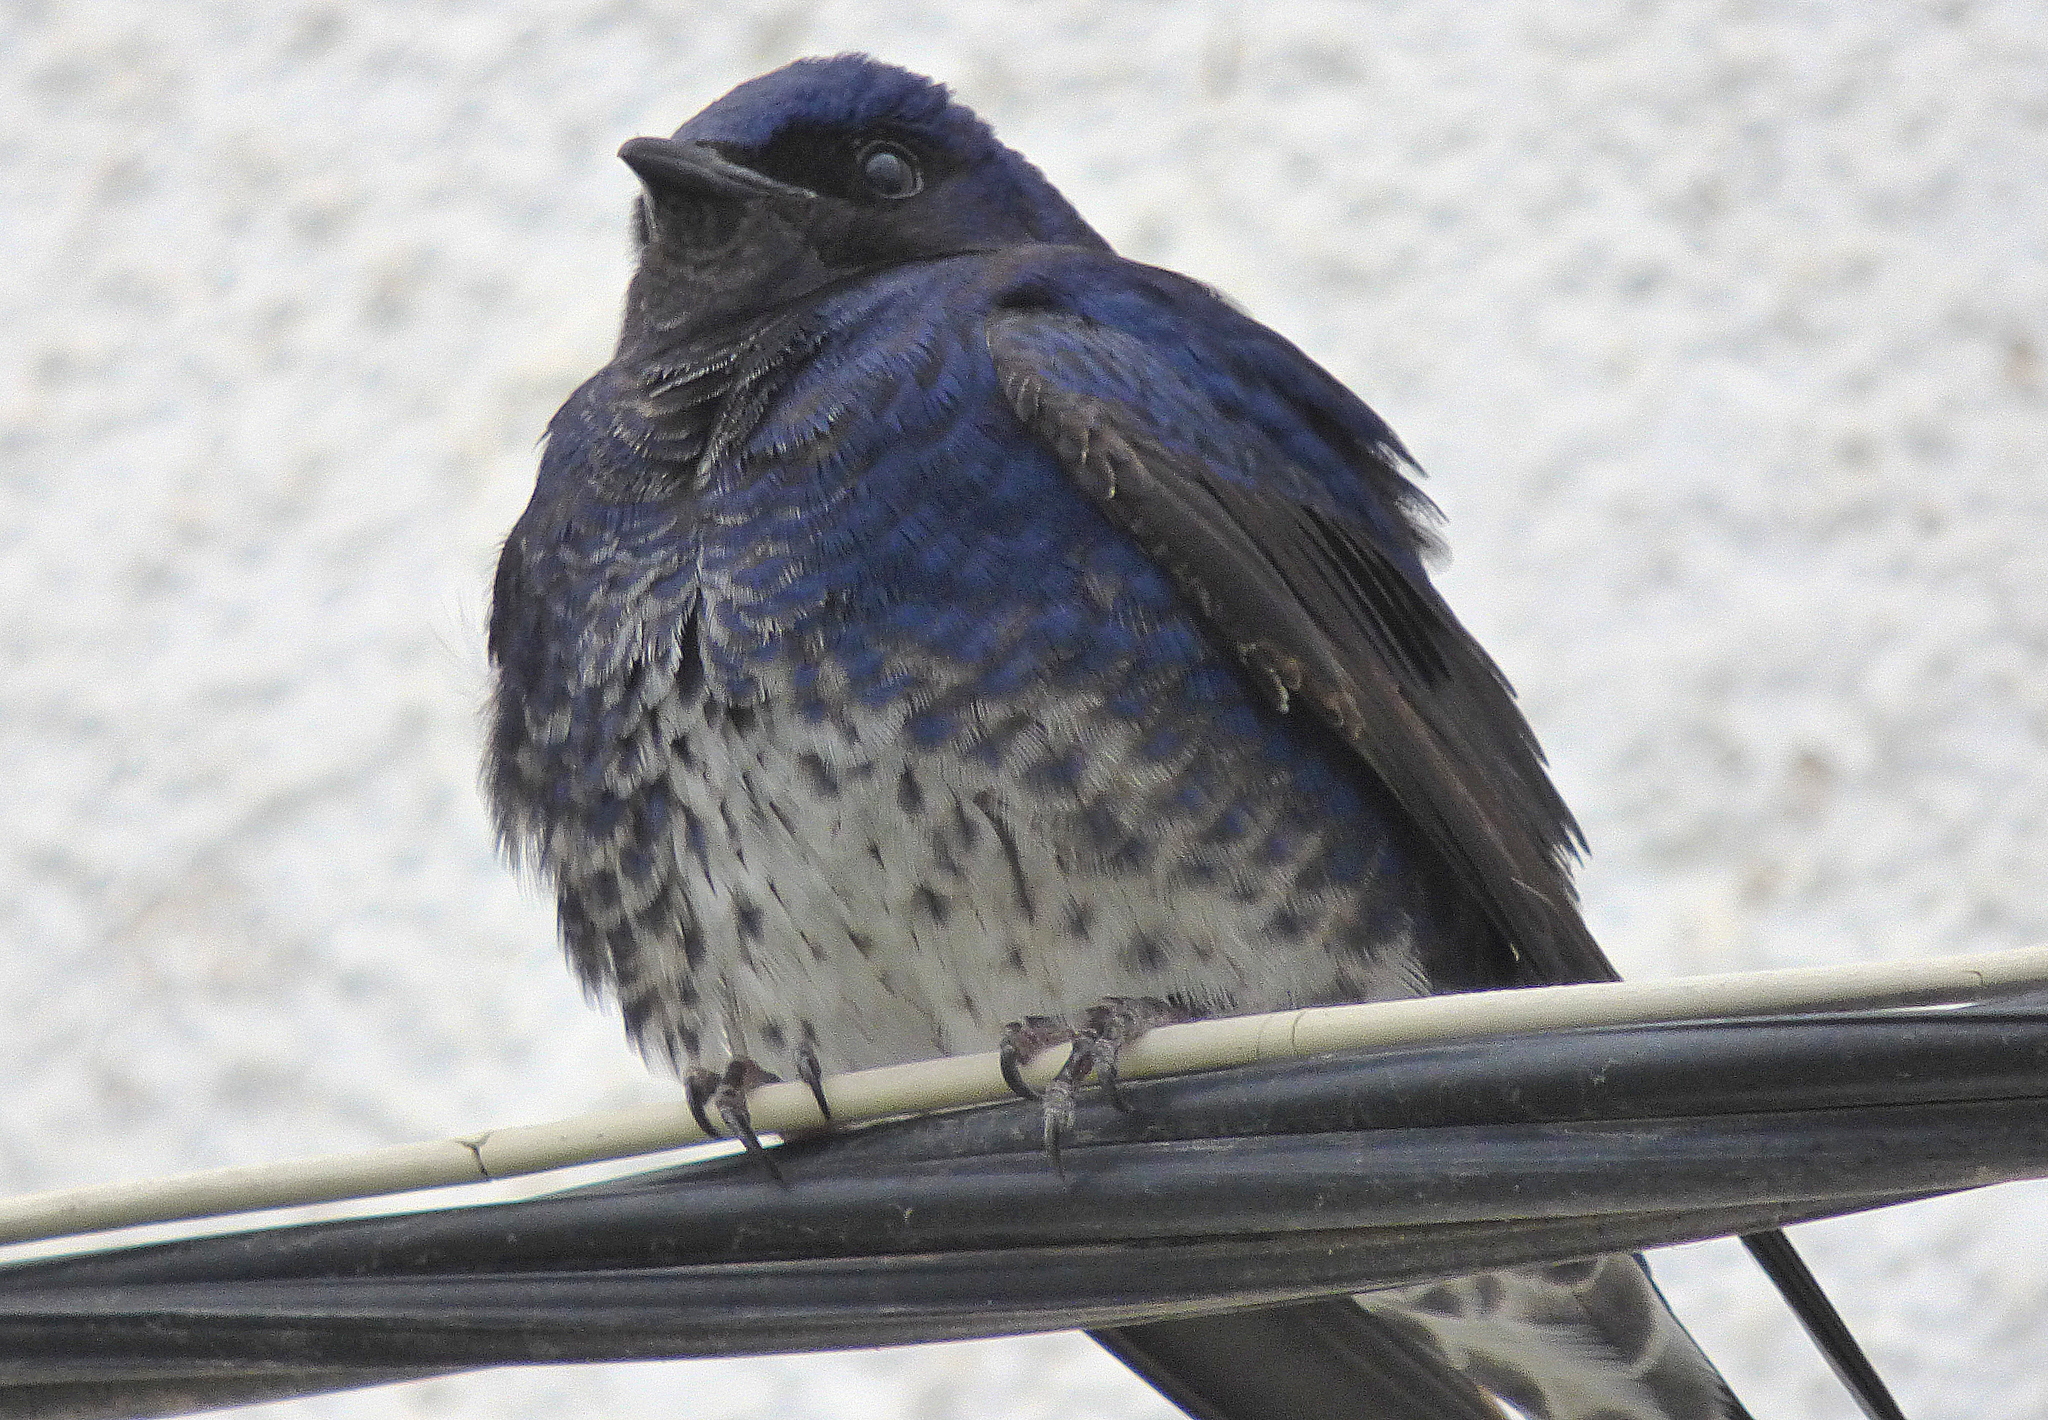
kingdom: Animalia
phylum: Chordata
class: Aves
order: Passeriformes
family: Hirundinidae
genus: Progne
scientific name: Progne elegans
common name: Southern martin
